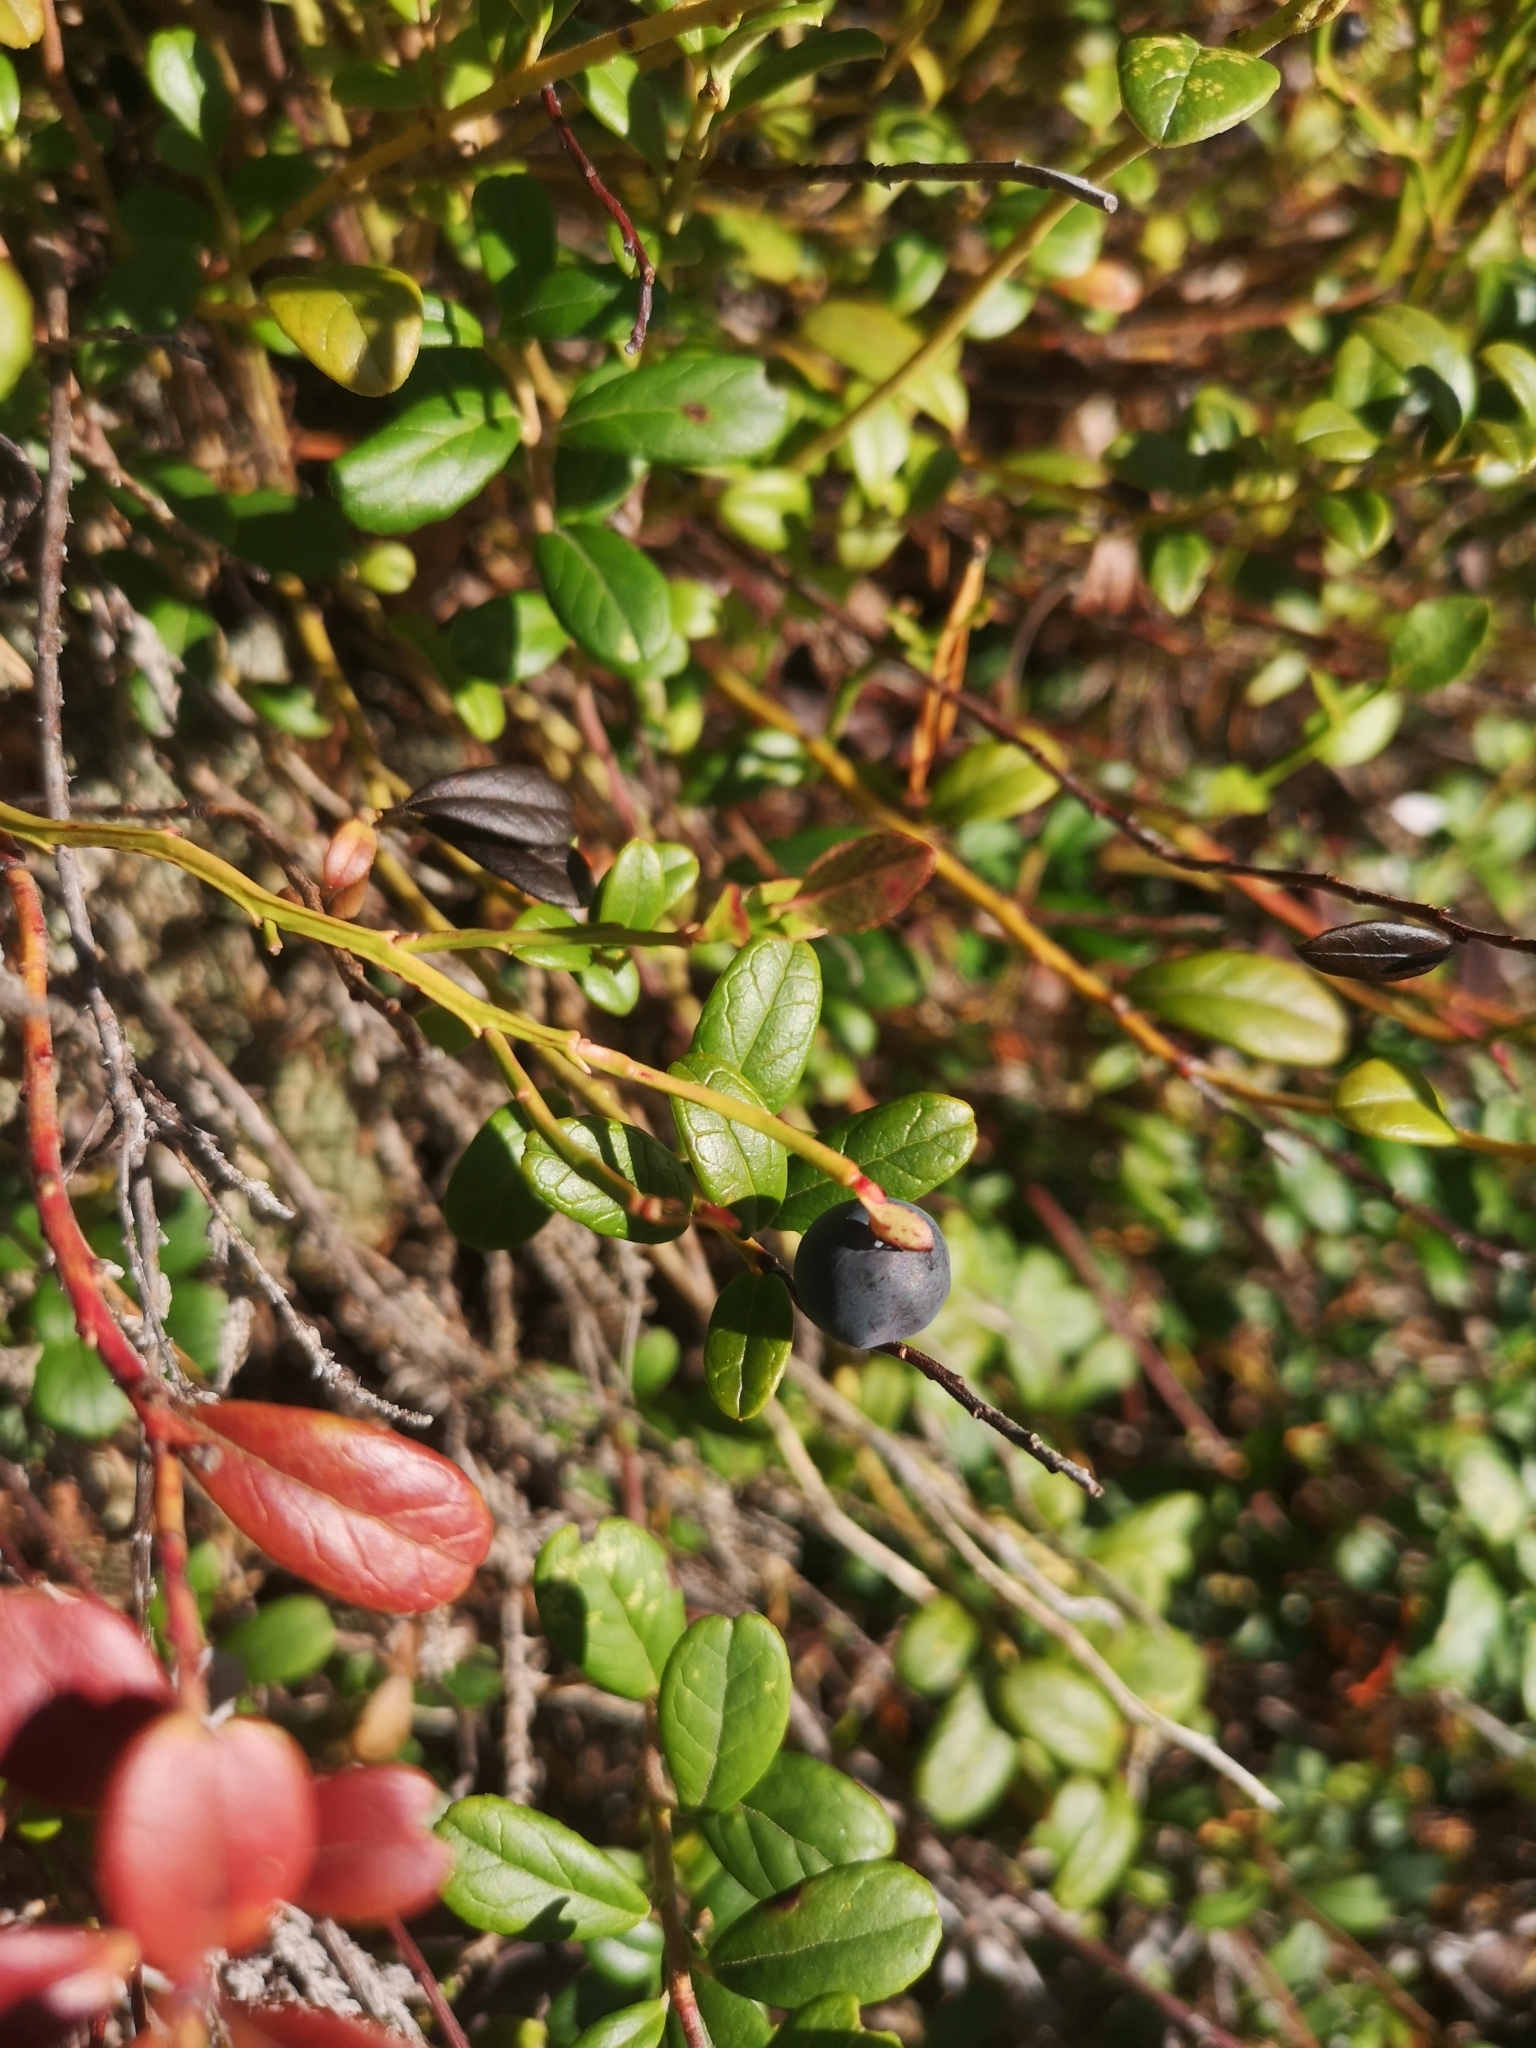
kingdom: Plantae
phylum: Tracheophyta
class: Magnoliopsida
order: Ericales
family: Ericaceae
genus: Vaccinium
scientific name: Vaccinium myrtillus
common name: Bilberry
